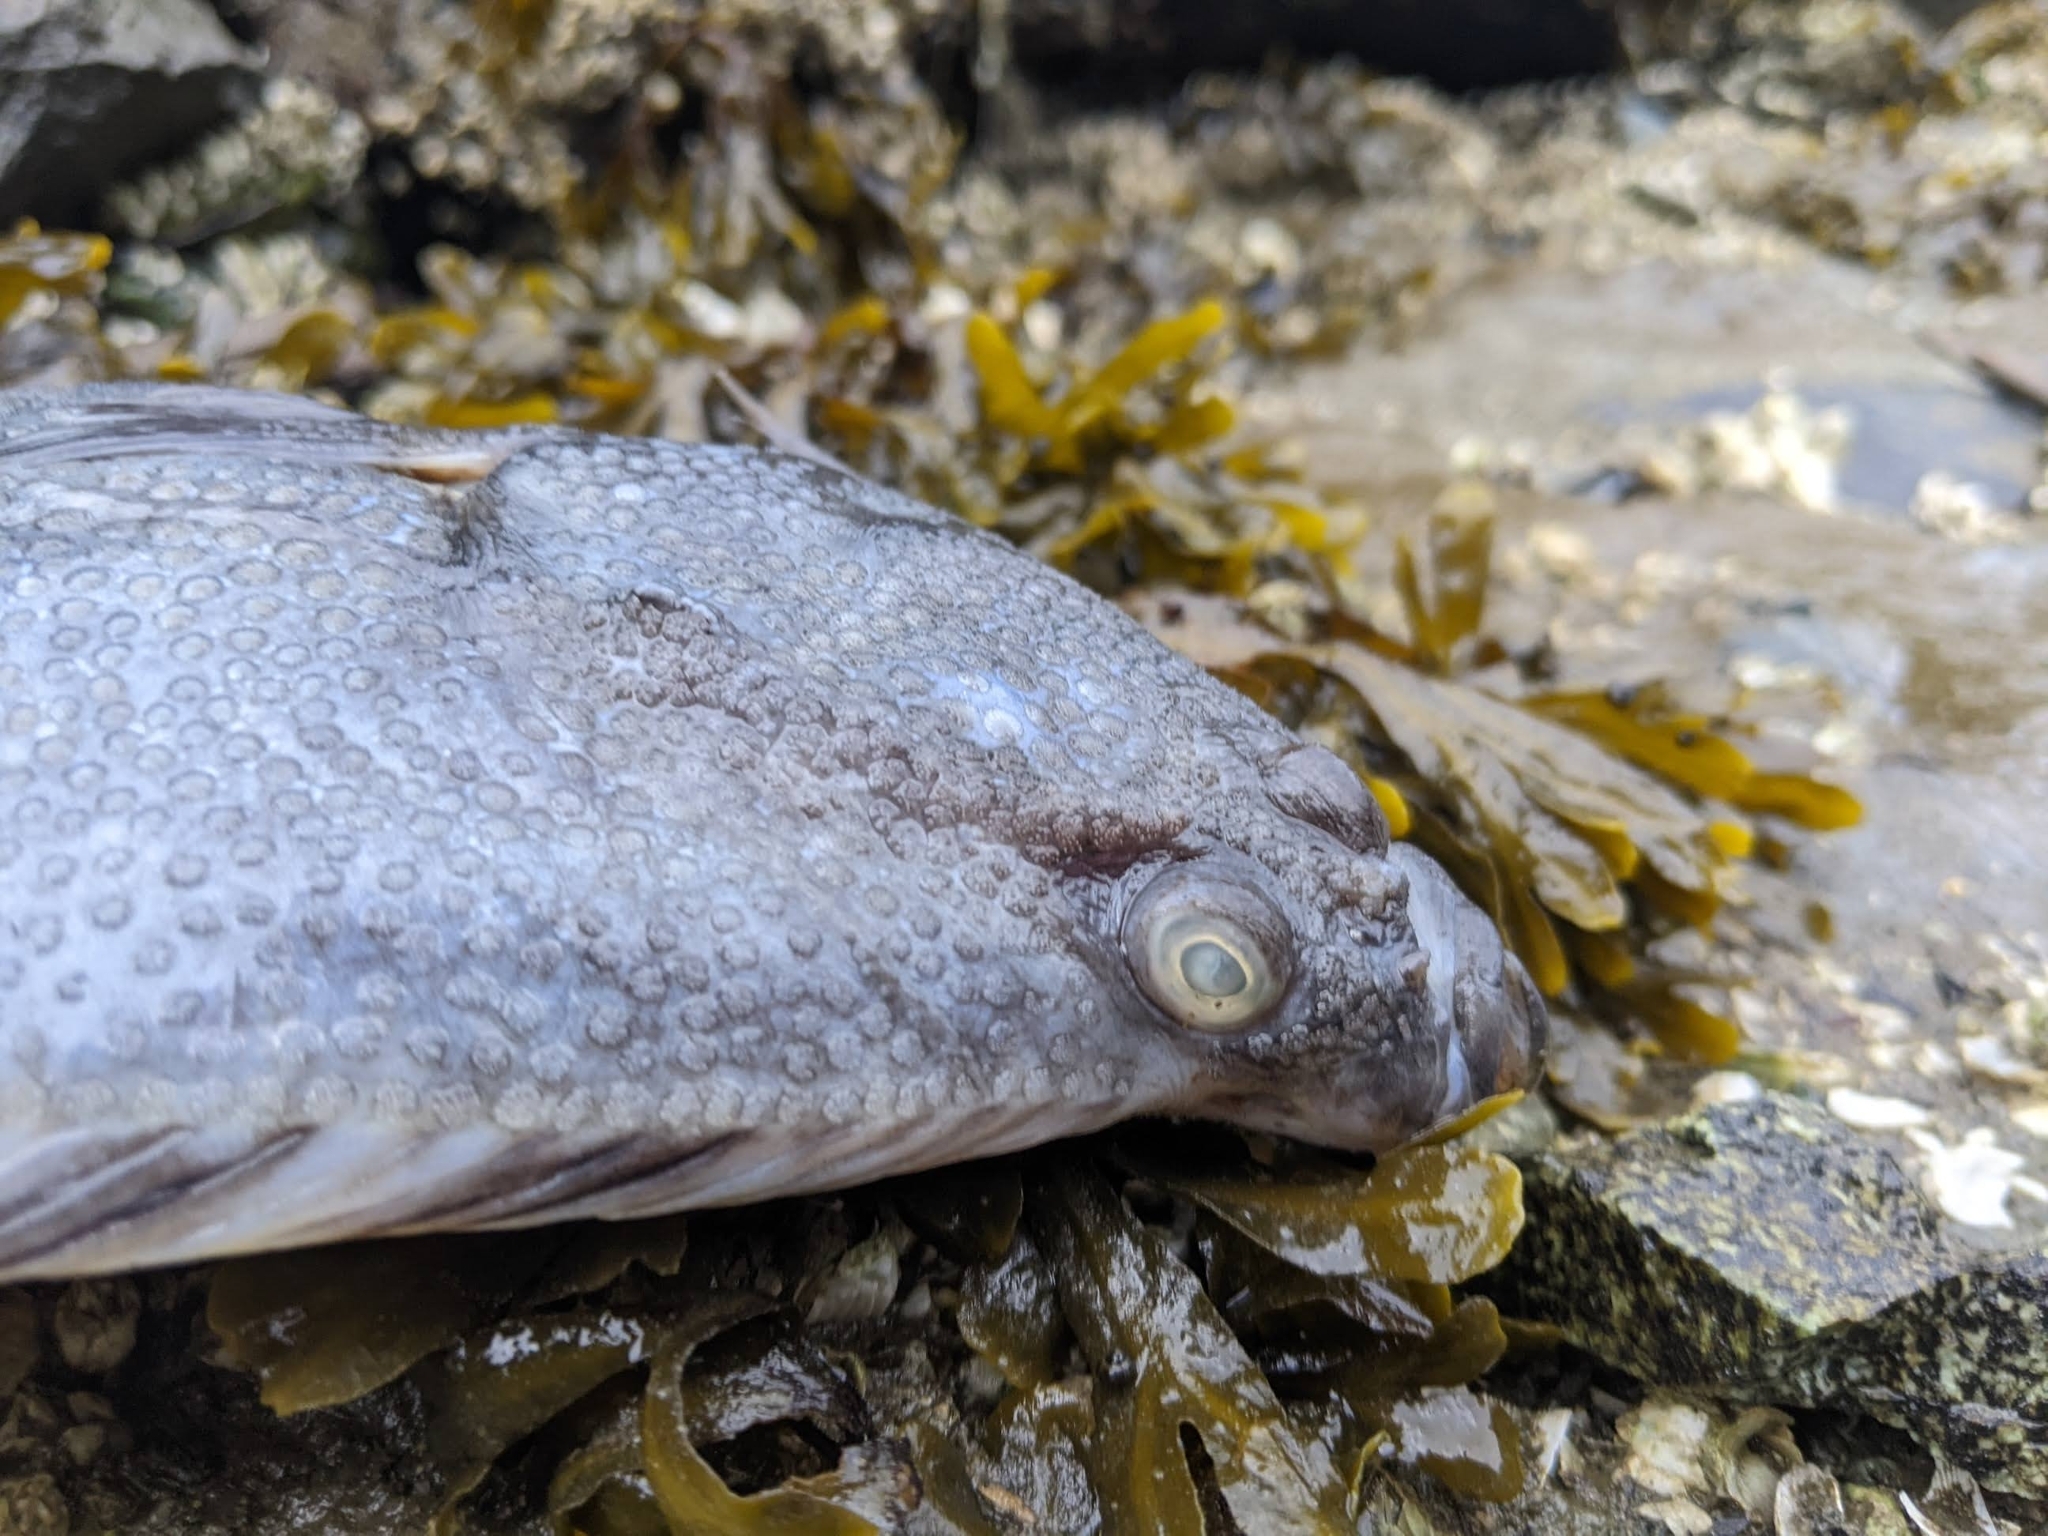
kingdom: Animalia
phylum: Chordata
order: Pleuronectiformes
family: Pleuronectidae
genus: Platichthys
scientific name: Platichthys stellatus
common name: Starry flounder
